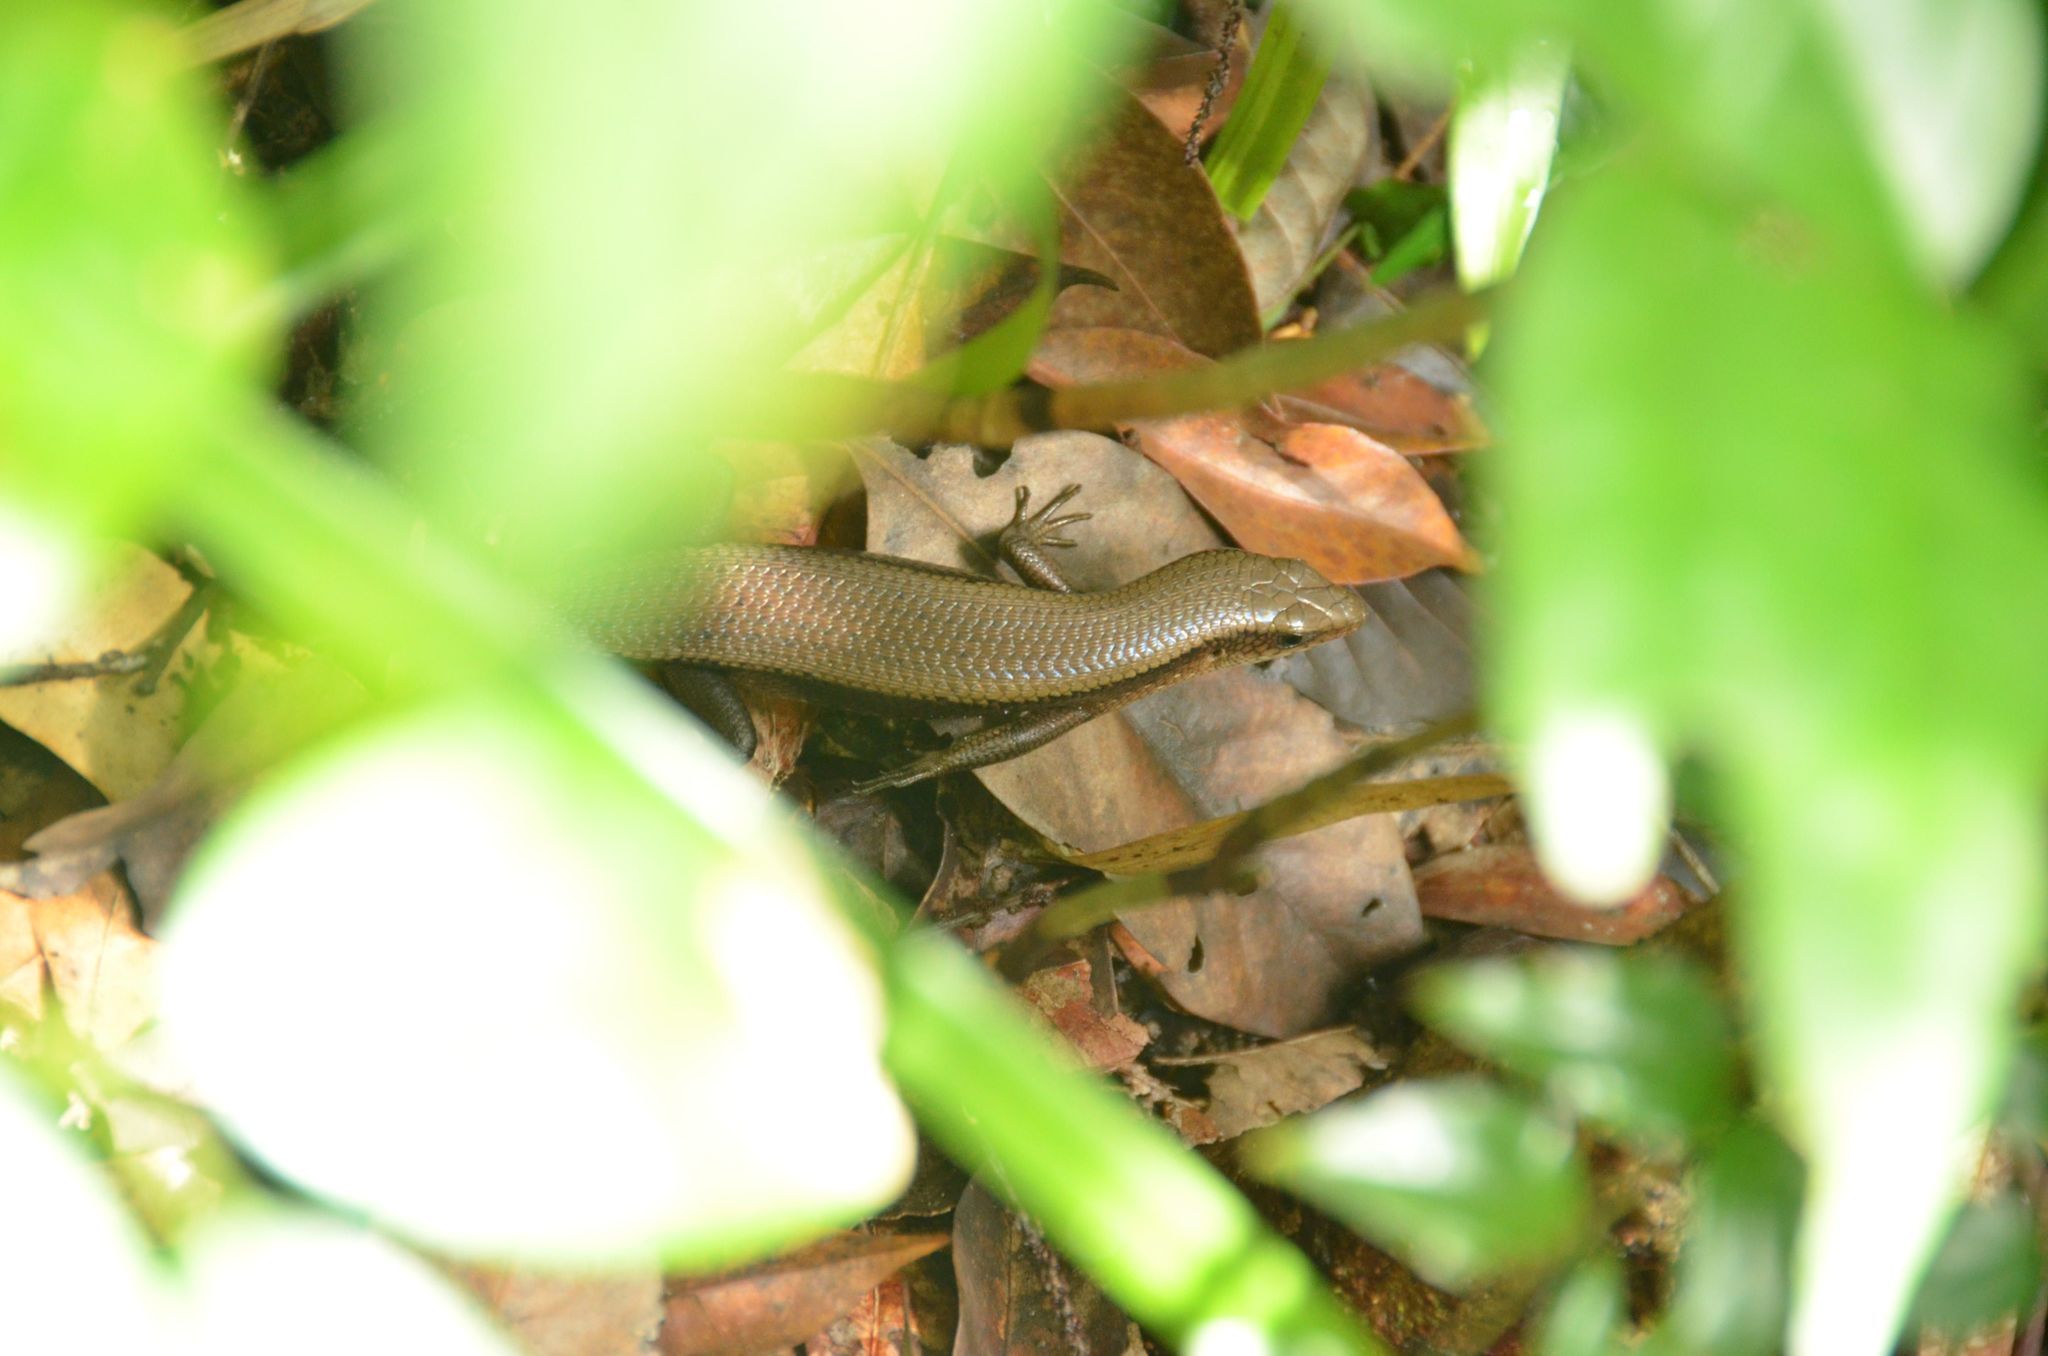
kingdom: Animalia
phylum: Chordata
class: Squamata
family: Scincidae
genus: Eutropis
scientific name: Eutropis multifasciata
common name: Common mabuya
